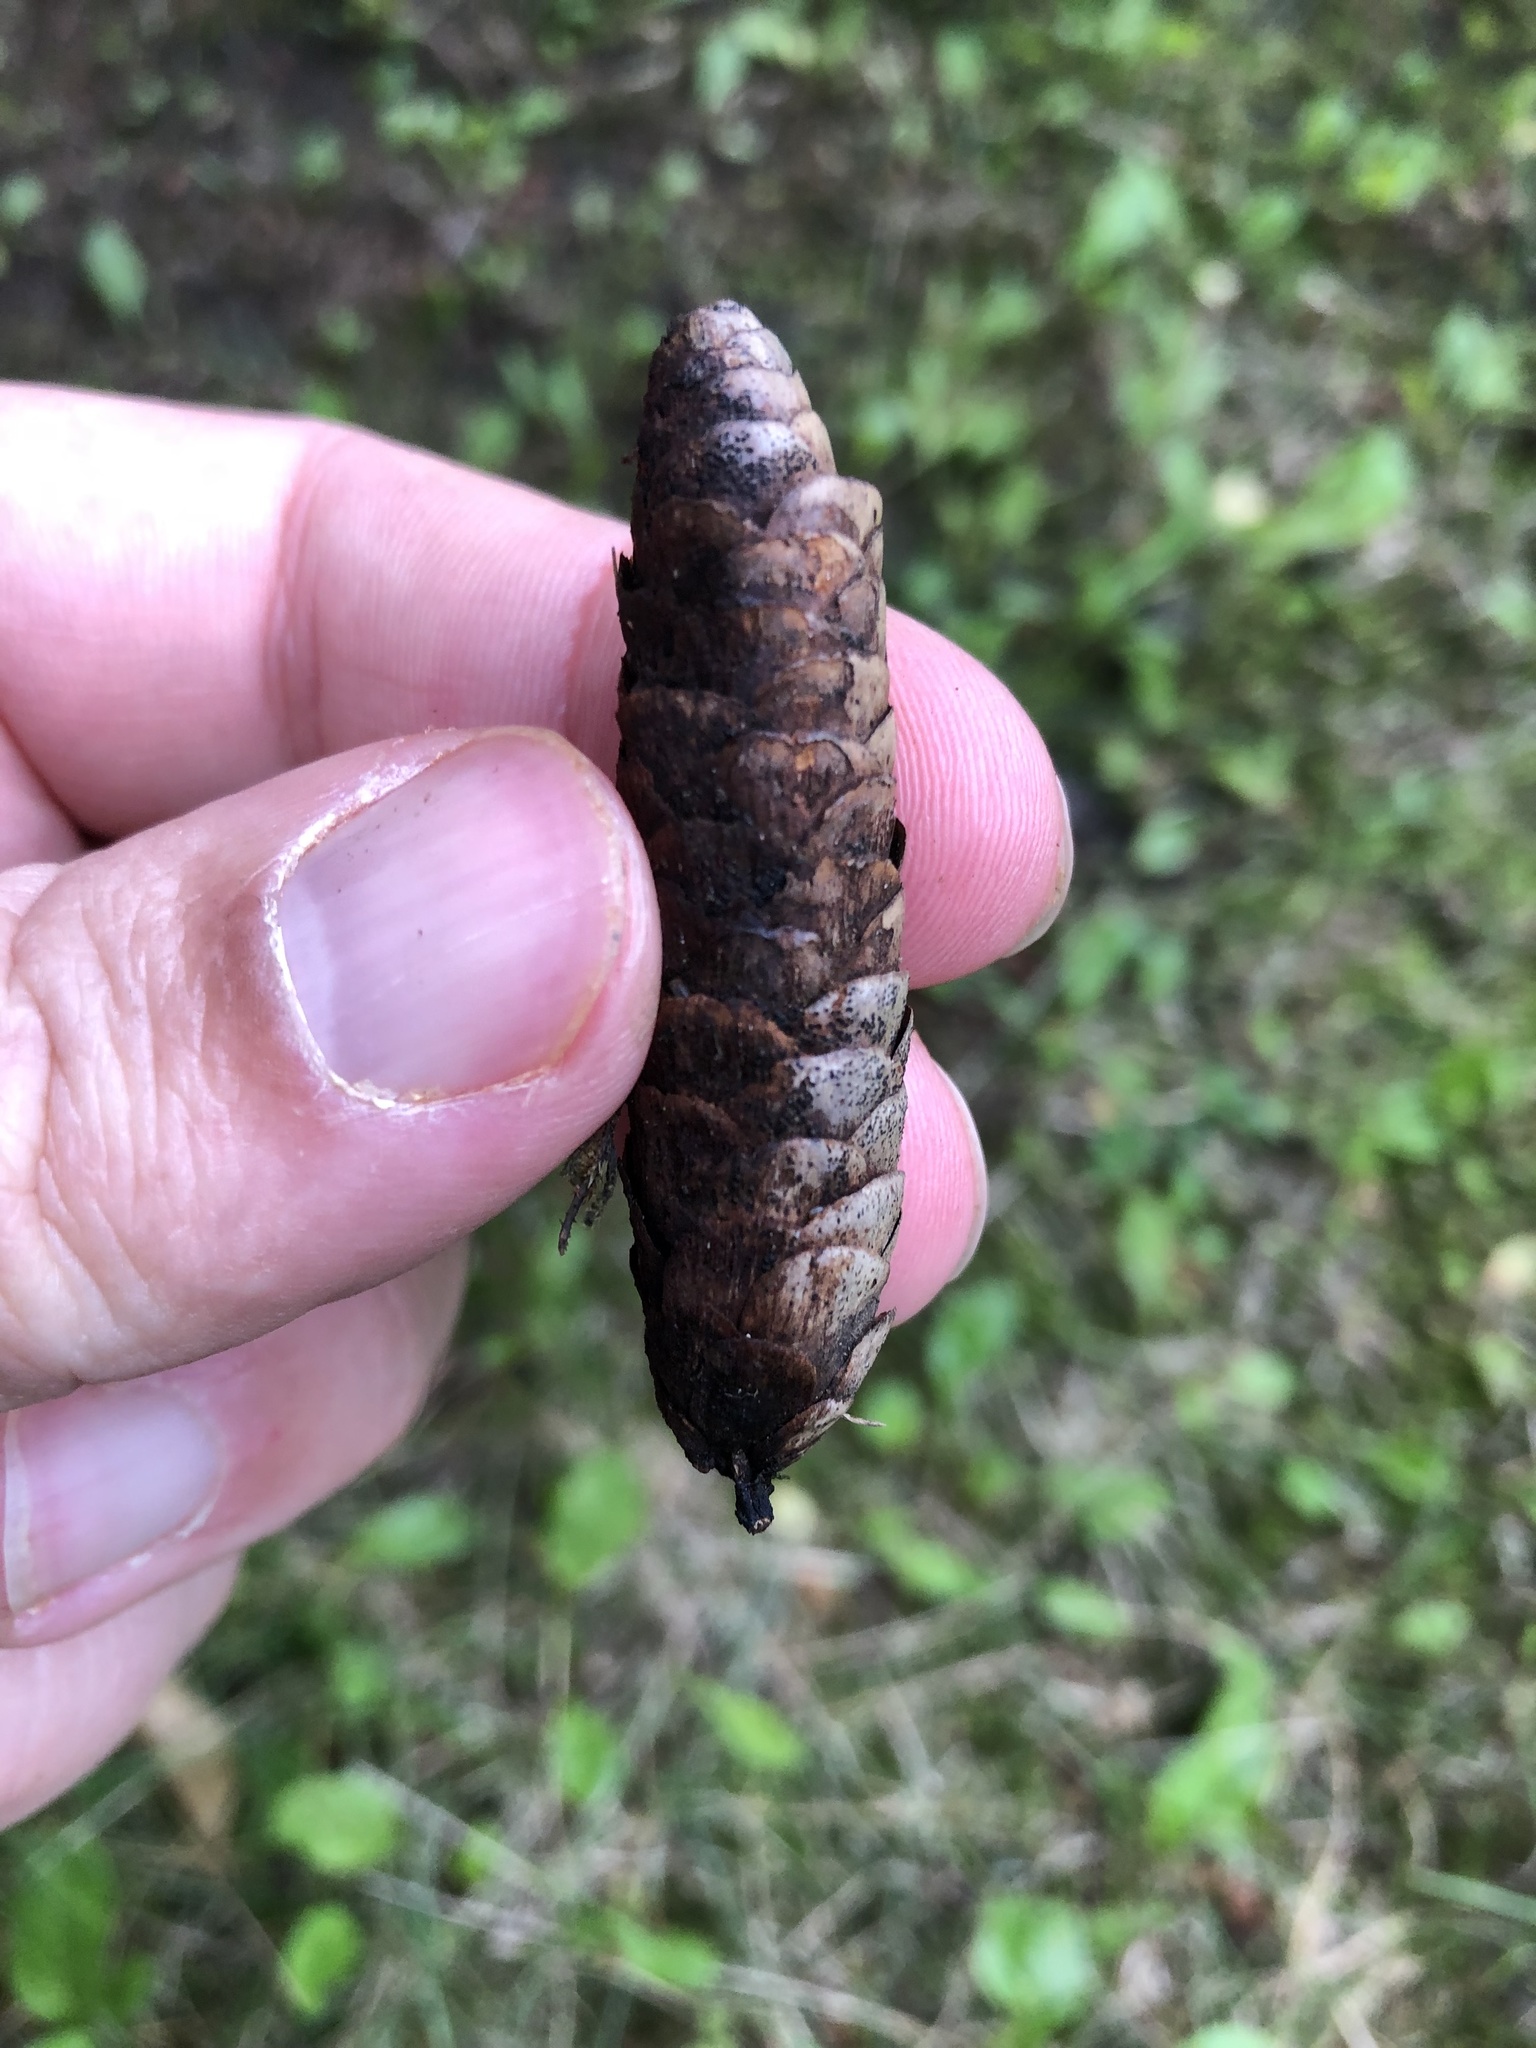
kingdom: Plantae
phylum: Tracheophyta
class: Pinopsida
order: Pinales
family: Pinaceae
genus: Picea
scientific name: Picea glauca
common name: White spruce
